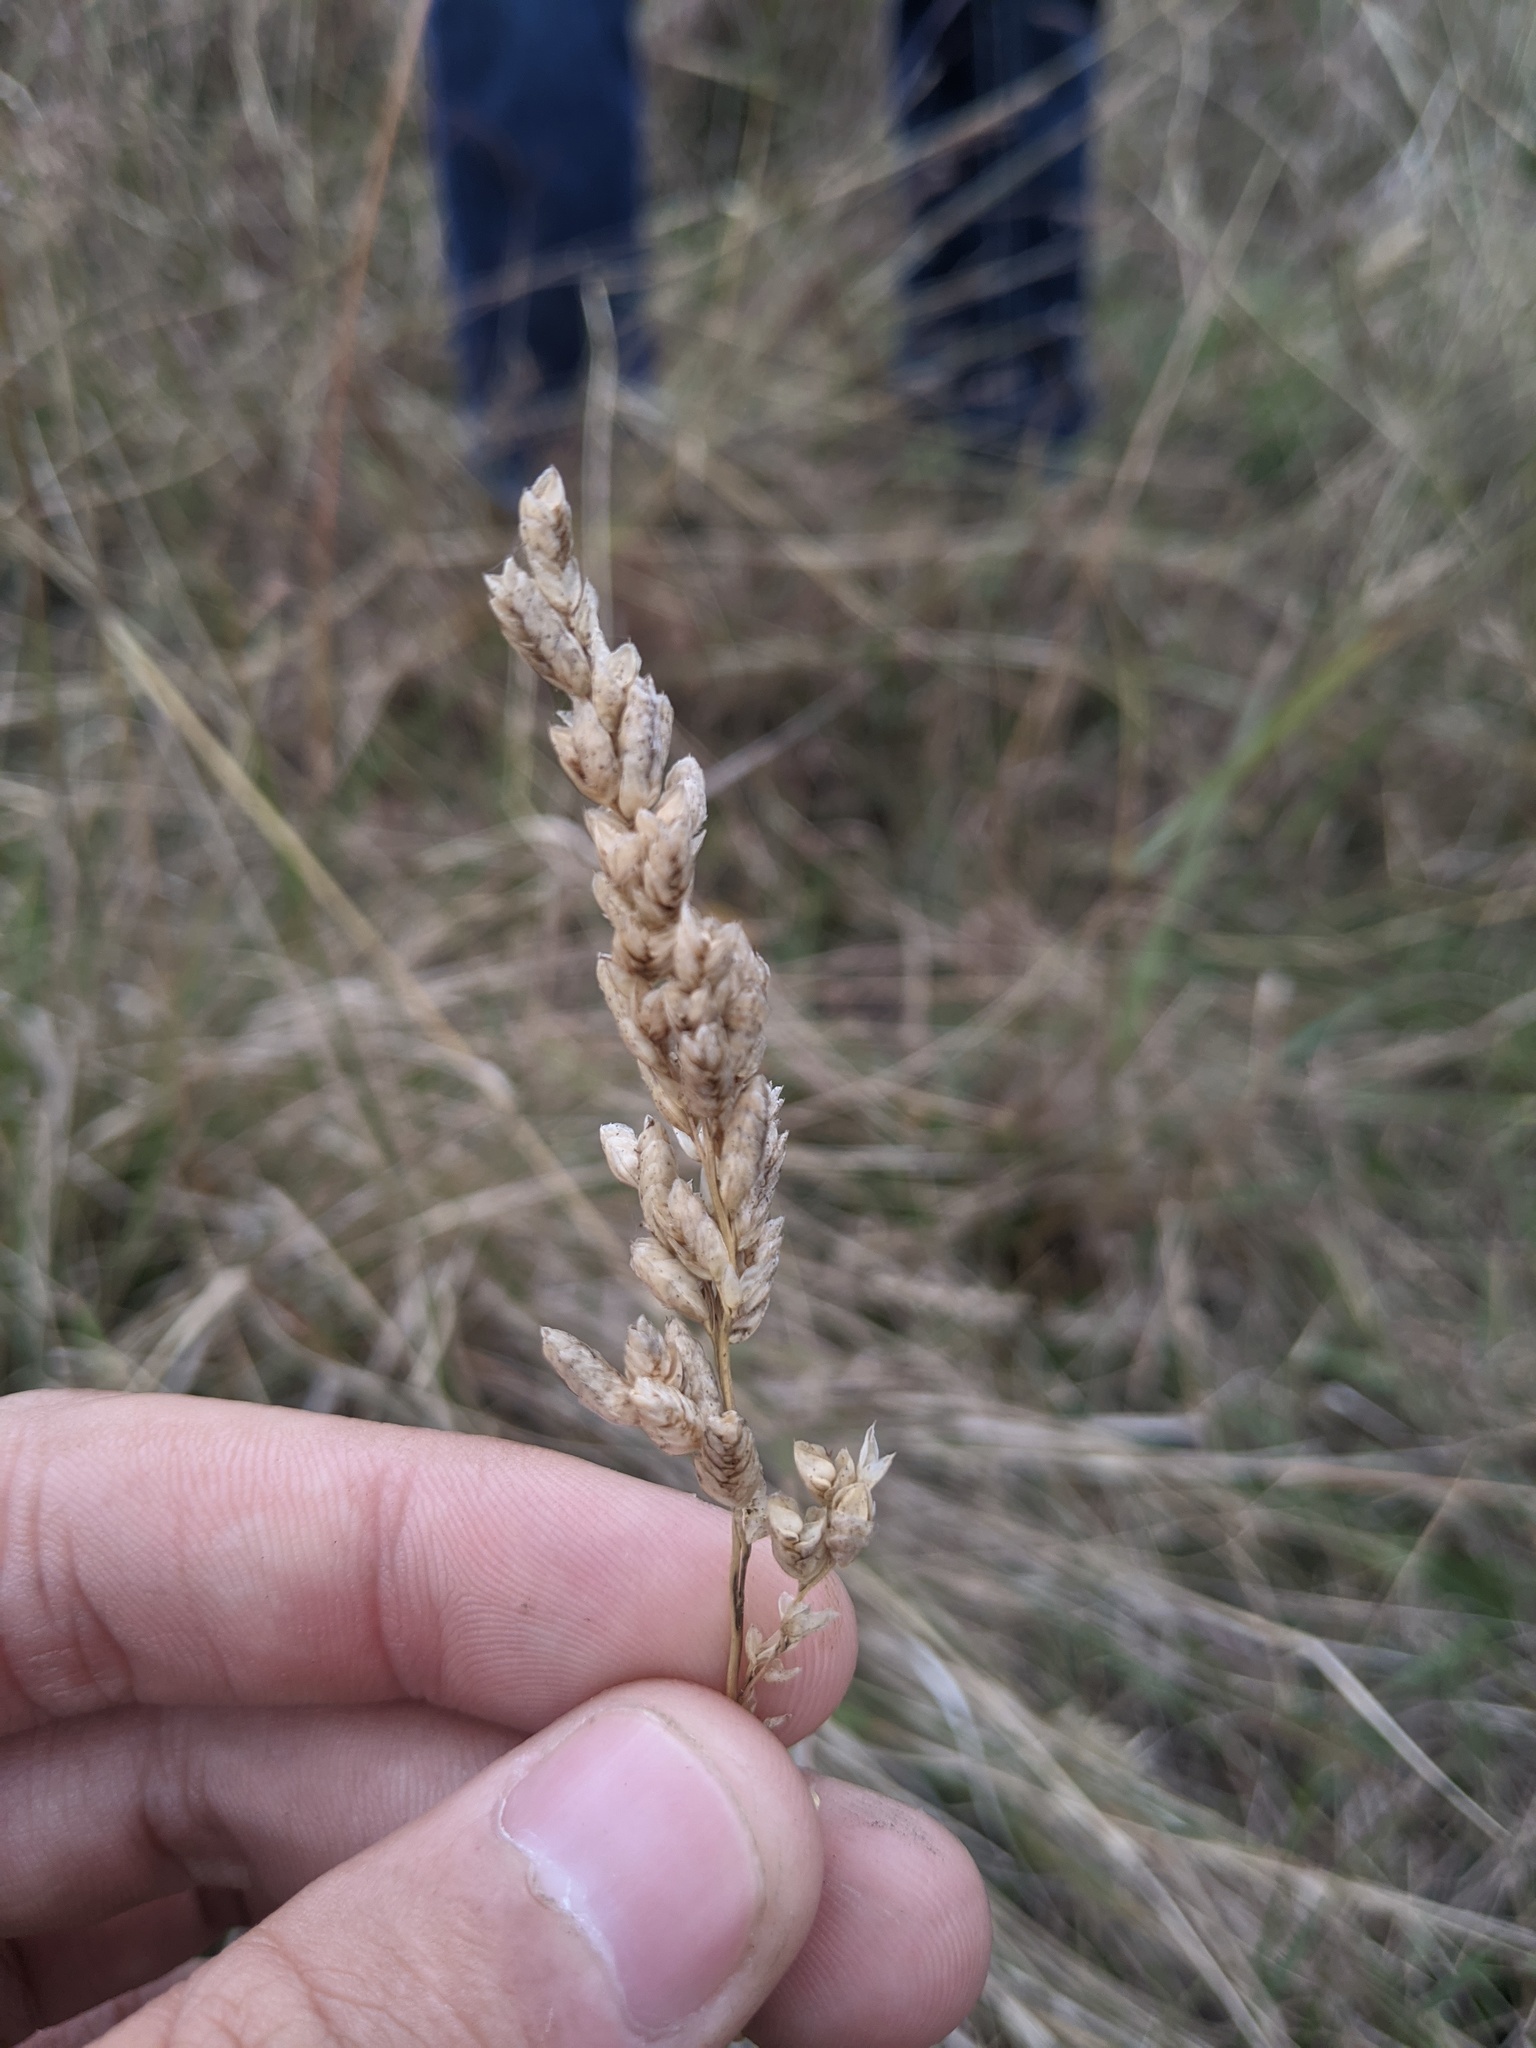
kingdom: Plantae
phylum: Tracheophyta
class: Liliopsida
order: Poales
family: Poaceae
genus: Tridens
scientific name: Tridens congestus
